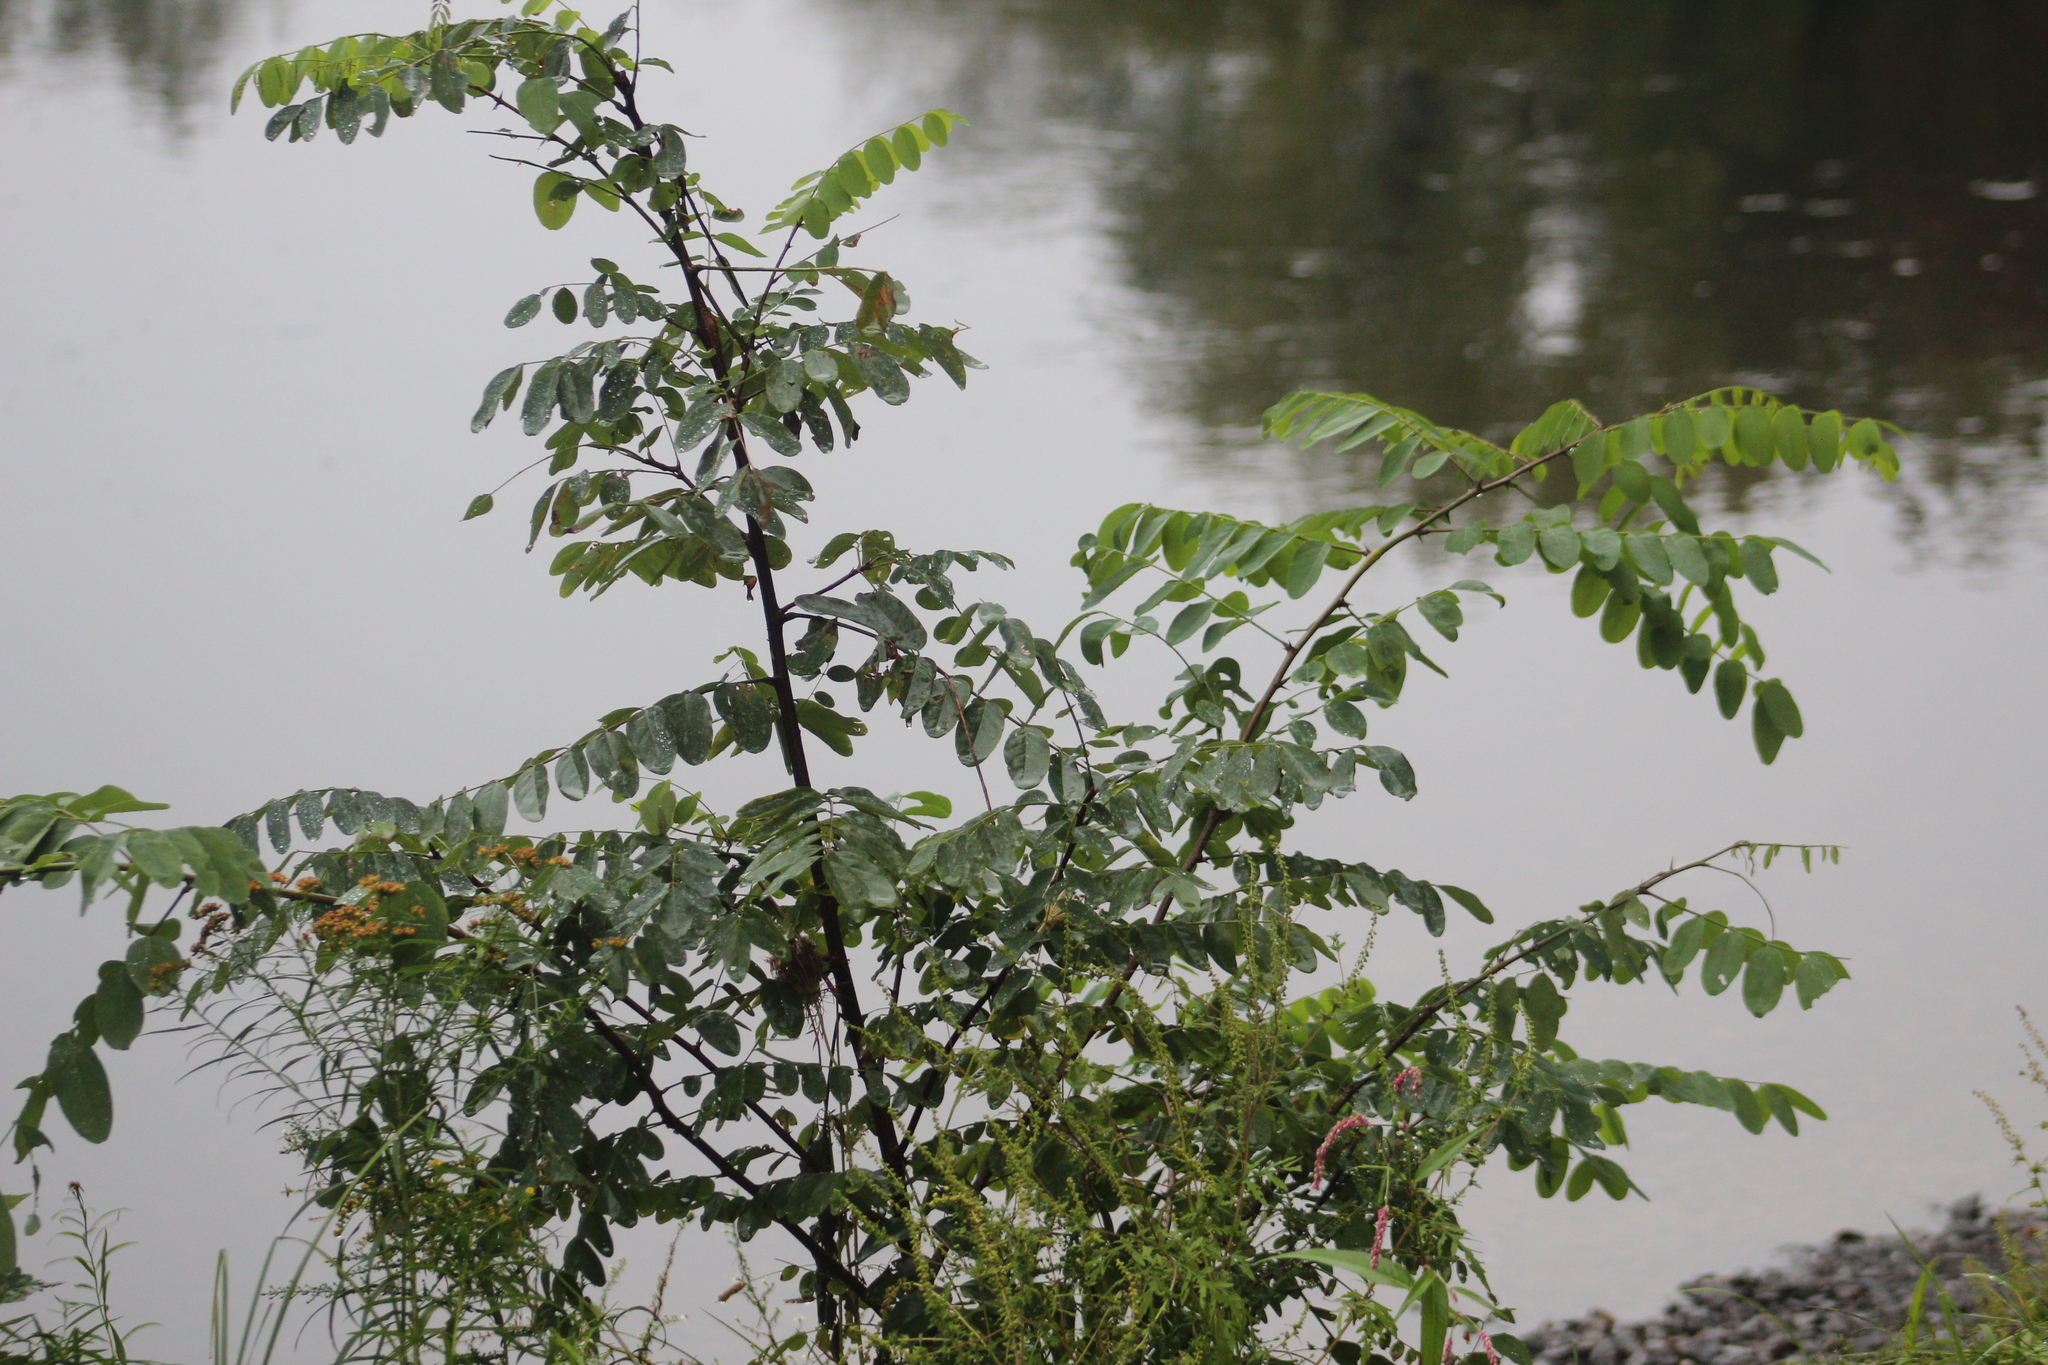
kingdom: Plantae
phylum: Tracheophyta
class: Magnoliopsida
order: Fabales
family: Fabaceae
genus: Robinia
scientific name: Robinia pseudoacacia
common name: Black locust
